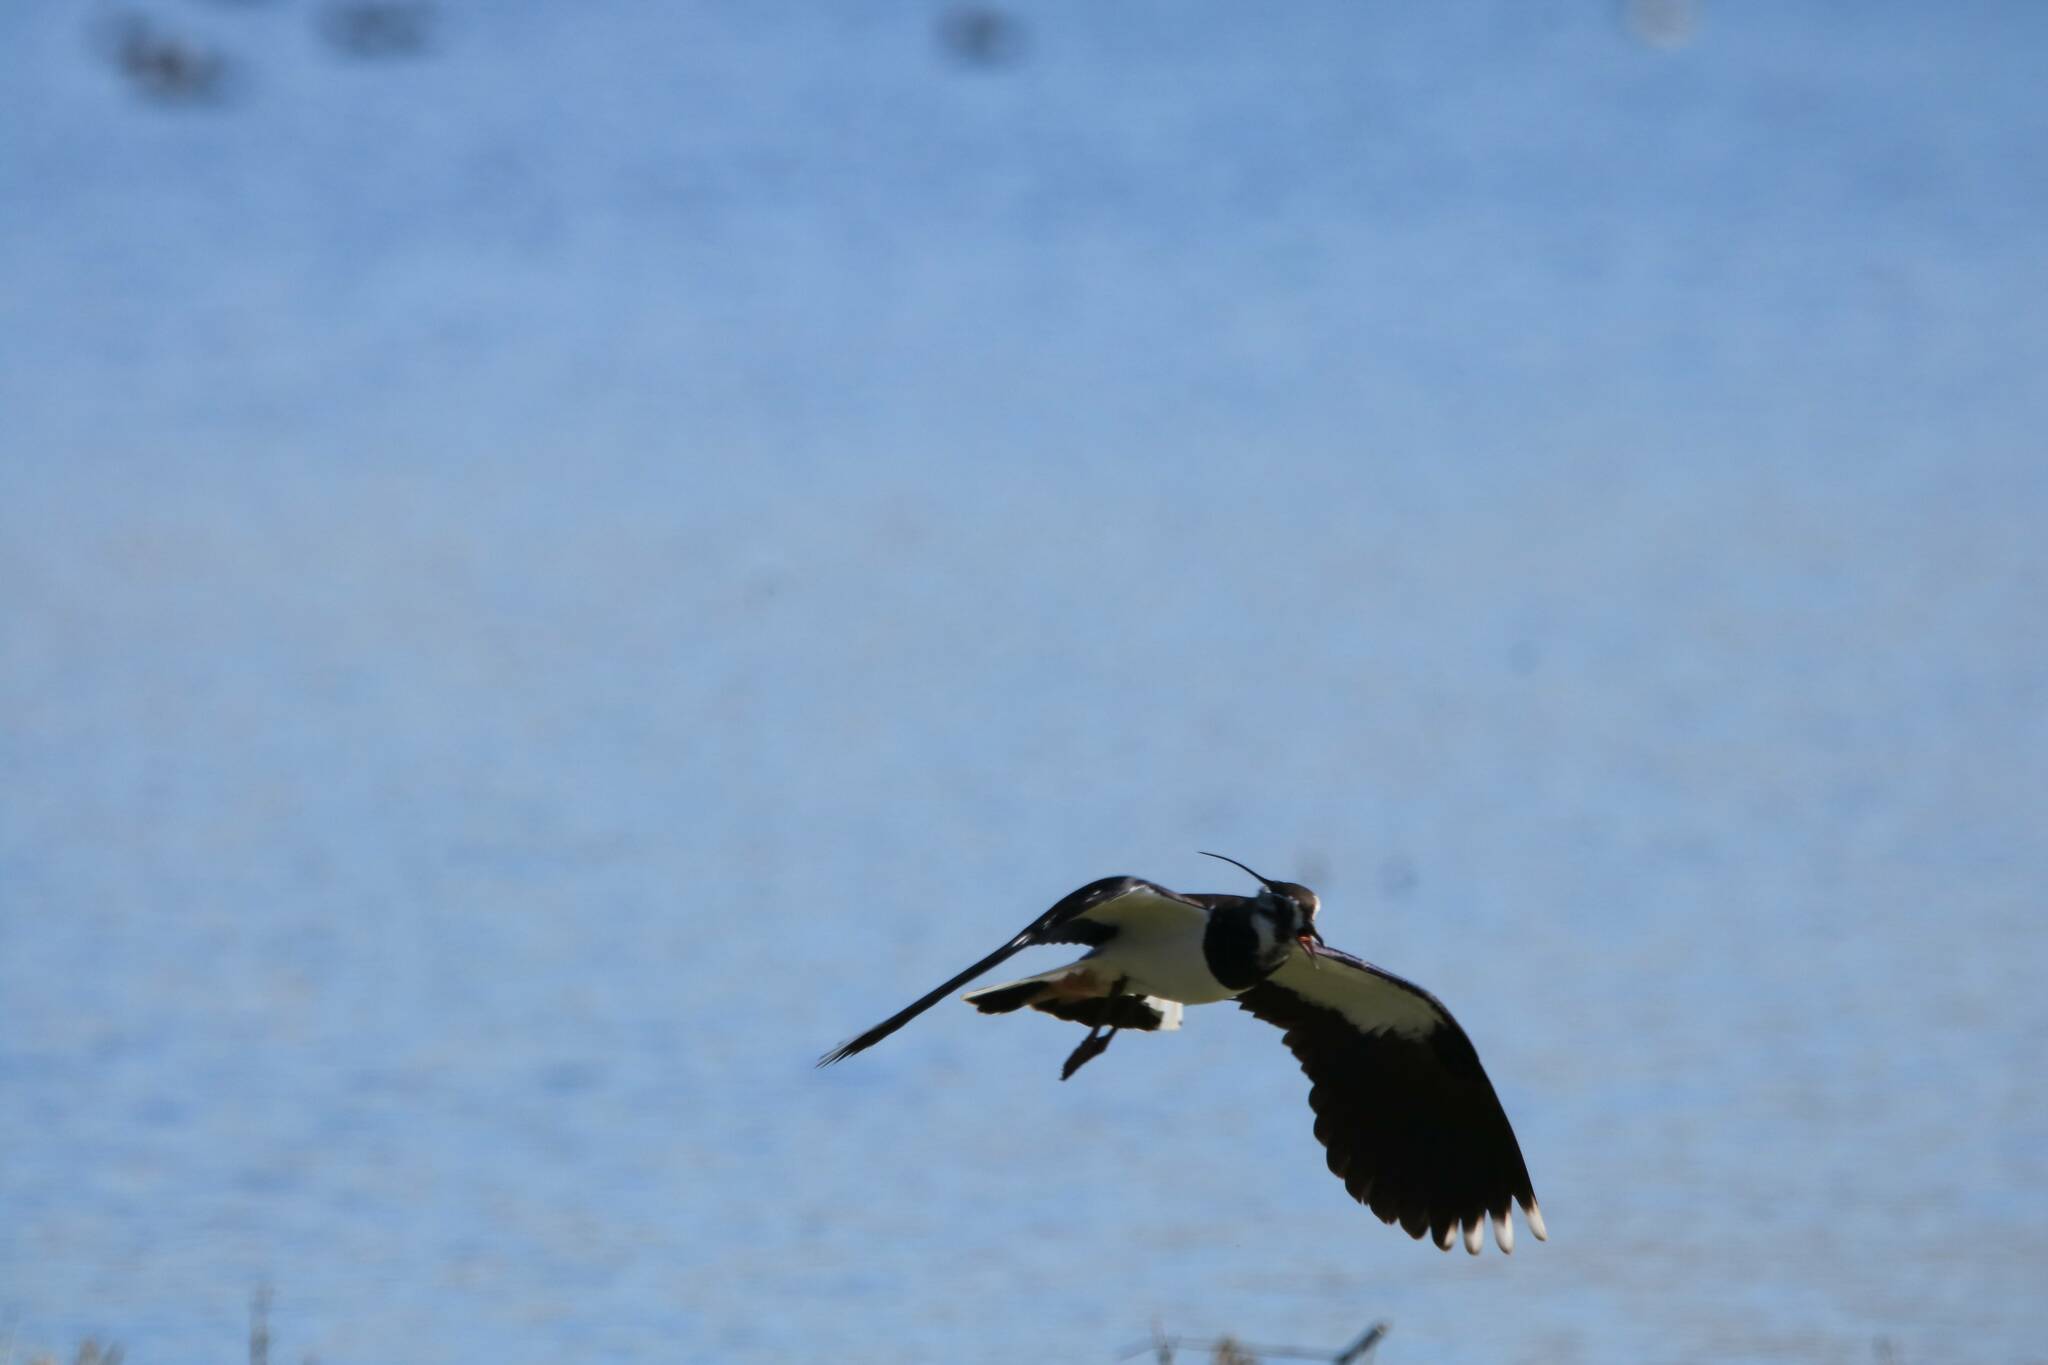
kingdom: Animalia
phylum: Chordata
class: Aves
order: Charadriiformes
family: Charadriidae
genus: Vanellus
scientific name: Vanellus vanellus
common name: Northern lapwing
